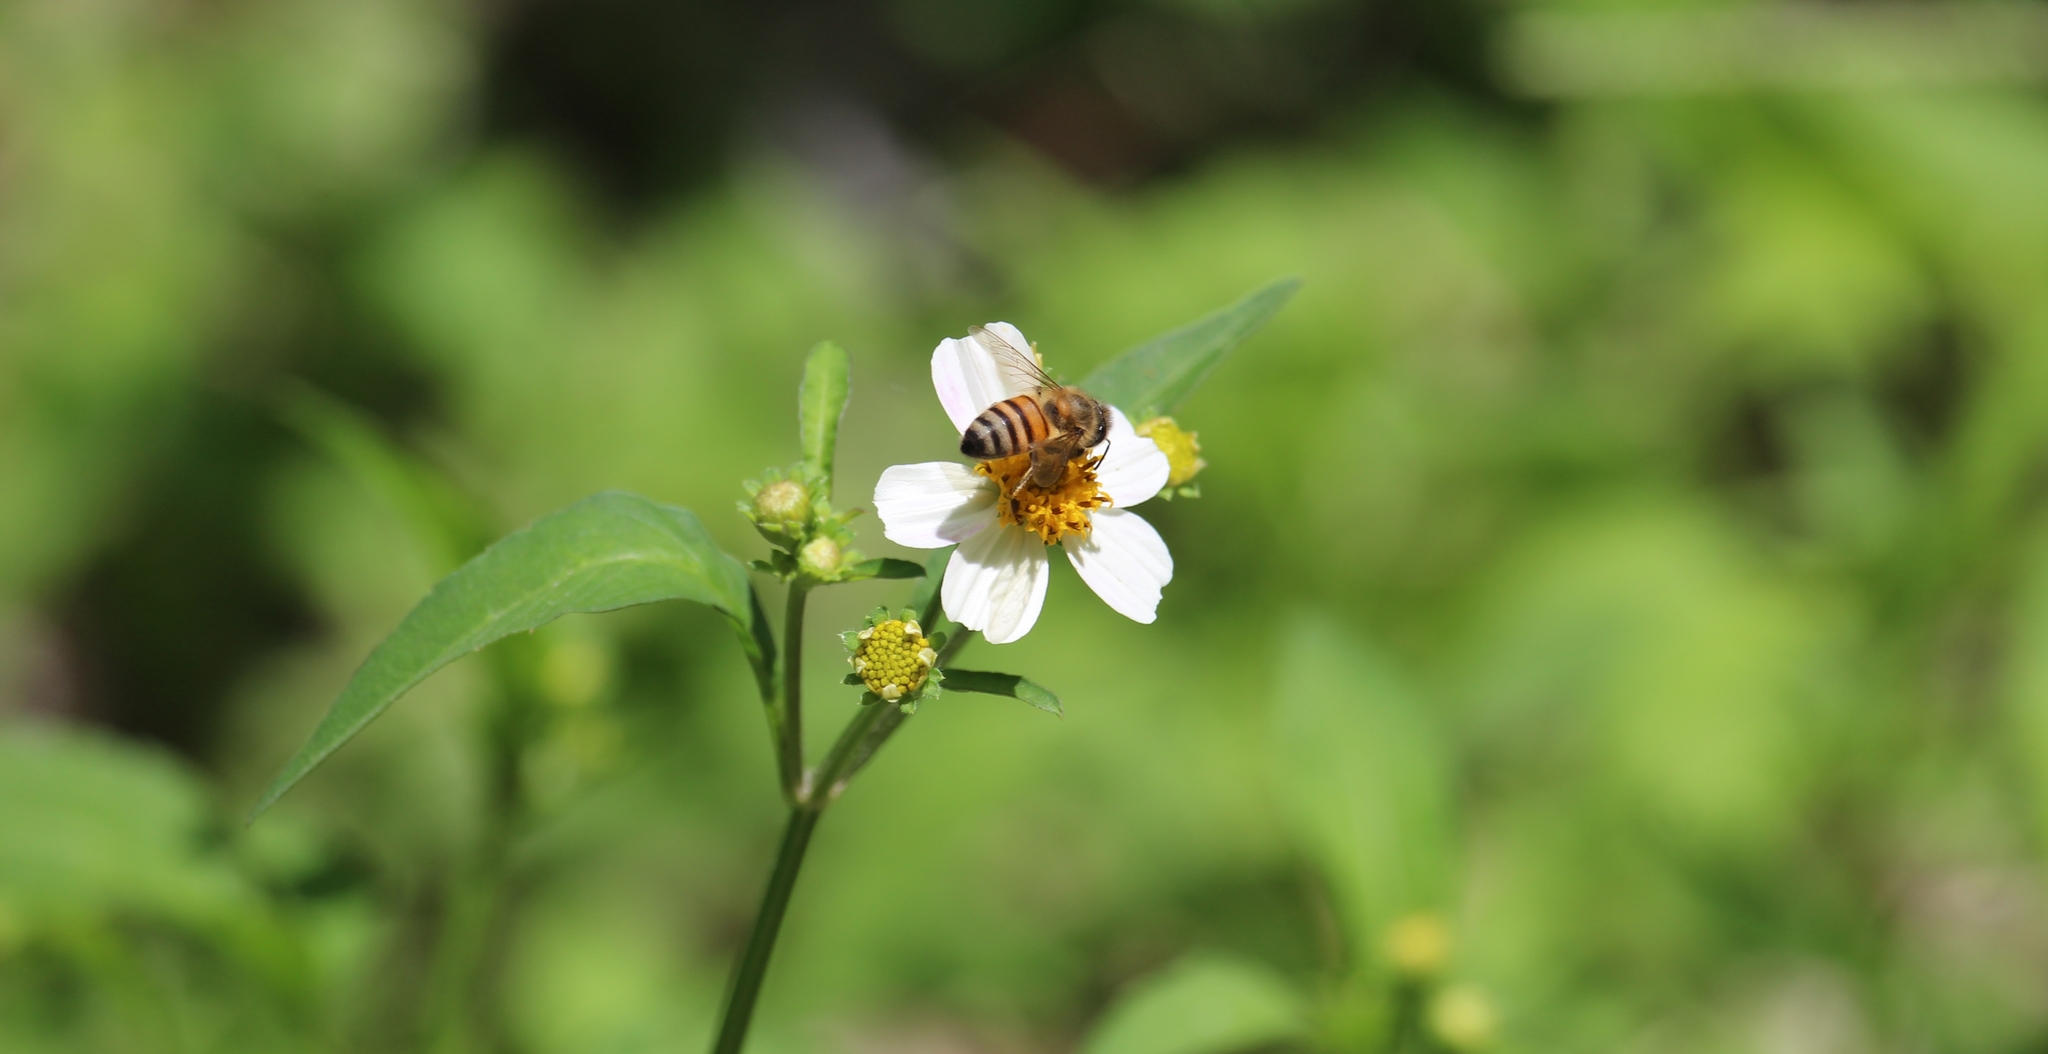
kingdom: Animalia
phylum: Arthropoda
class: Insecta
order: Hymenoptera
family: Apidae
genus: Apis
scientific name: Apis mellifera
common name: Honey bee
